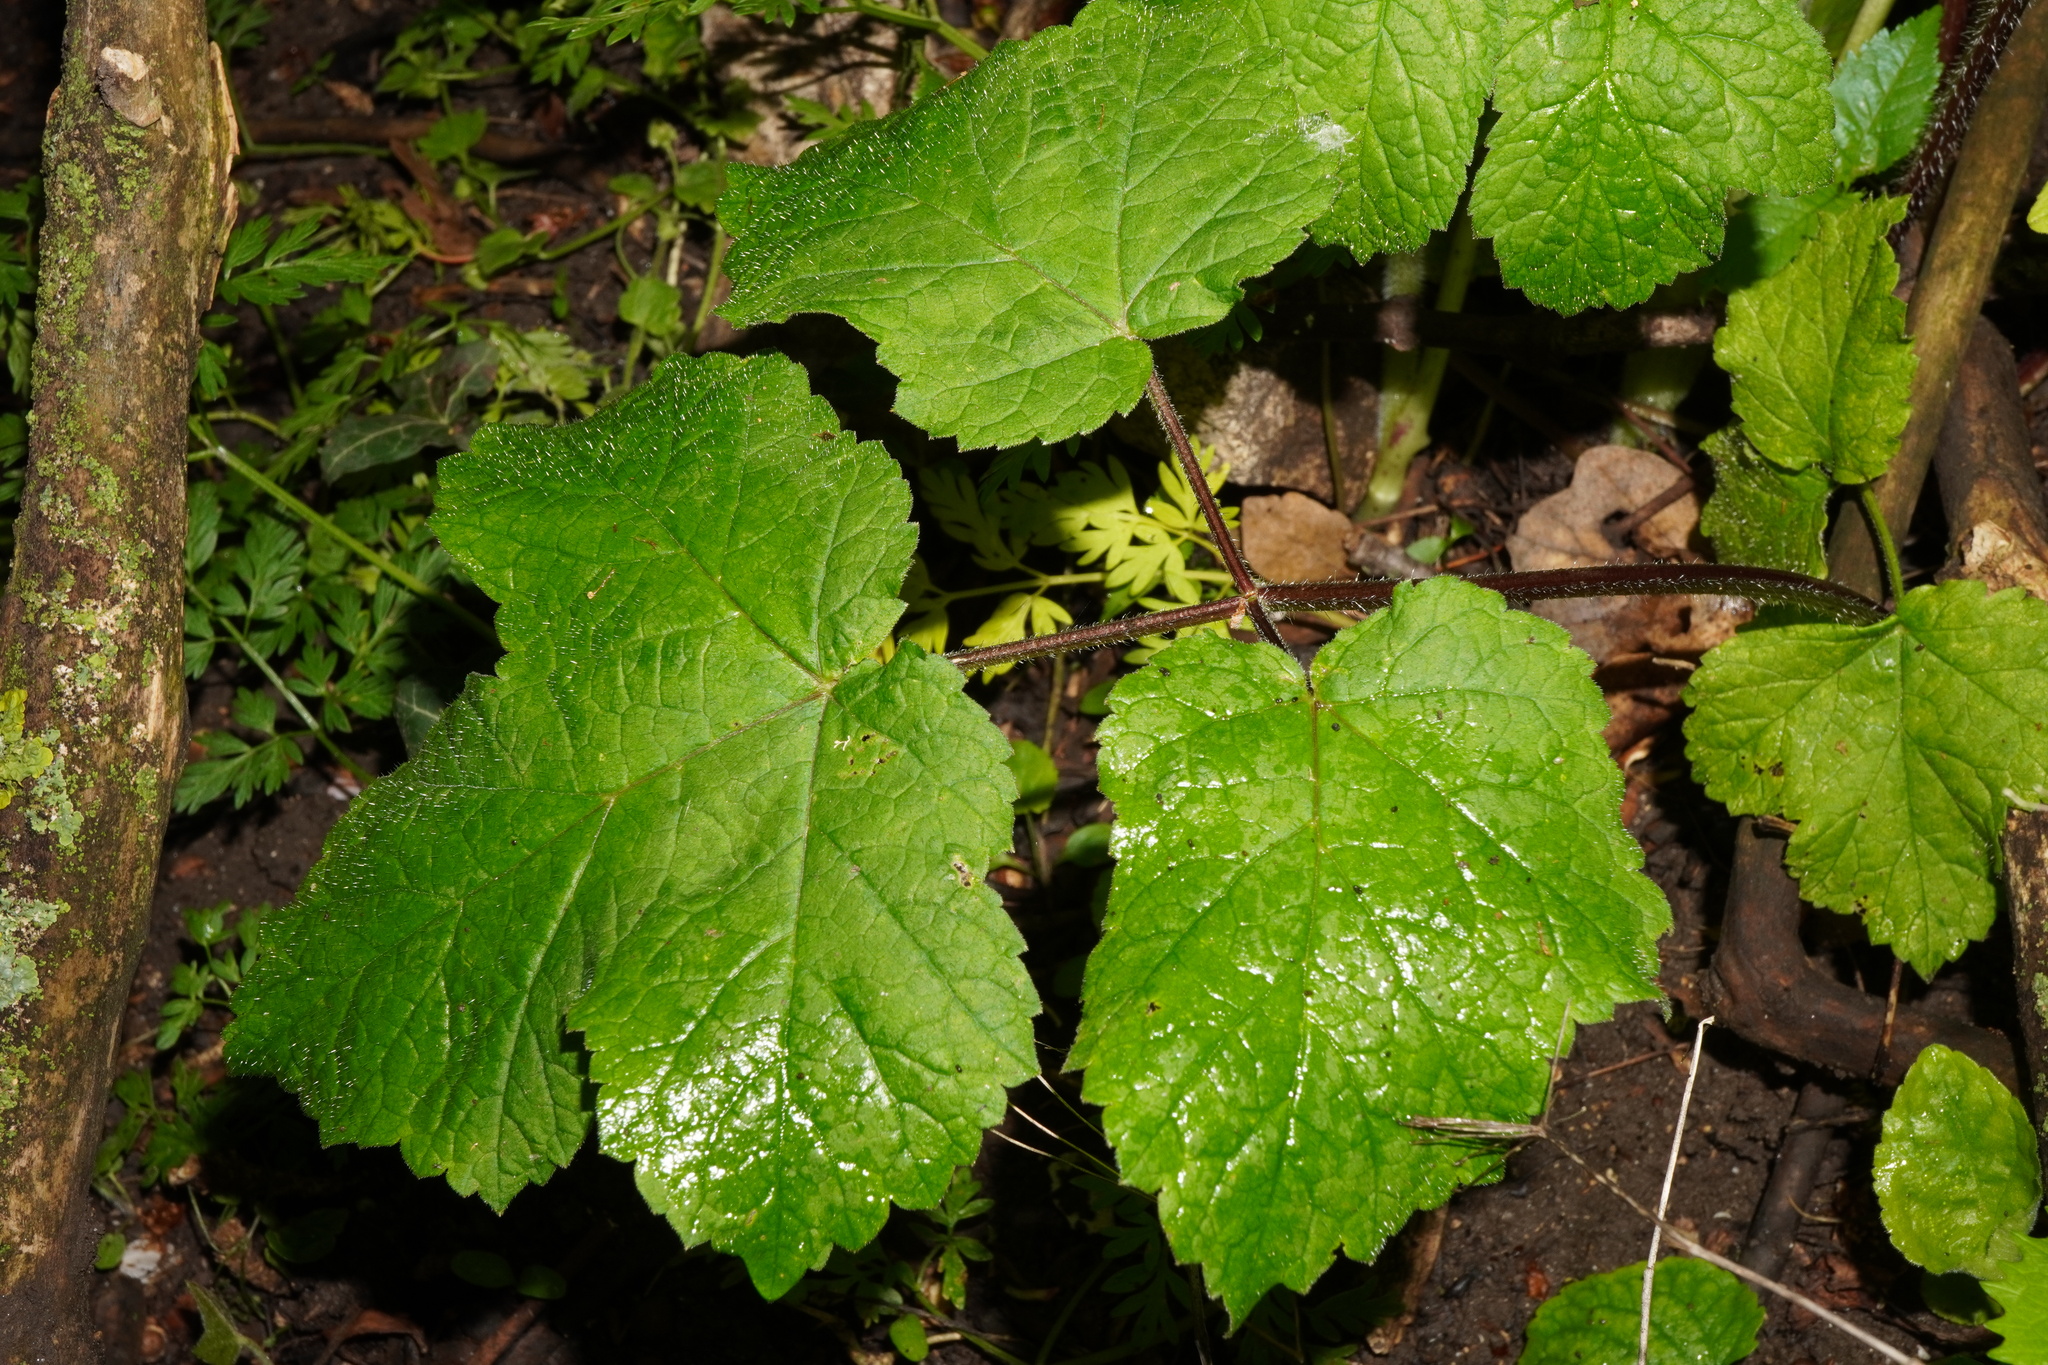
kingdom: Plantae
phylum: Tracheophyta
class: Magnoliopsida
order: Apiales
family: Apiaceae
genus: Heracleum
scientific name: Heracleum sphondylium
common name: Hogweed
